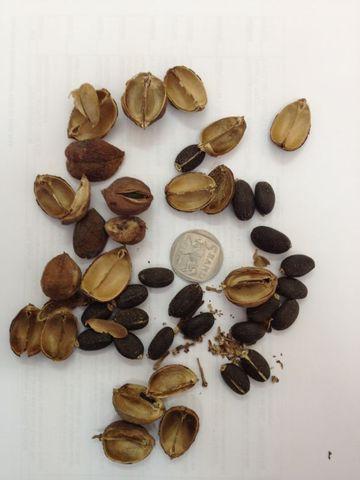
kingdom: Plantae
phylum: Tracheophyta
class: Magnoliopsida
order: Malpighiales
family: Euphorbiaceae
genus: Jatropha
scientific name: Jatropha curcas
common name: Barbados nut
